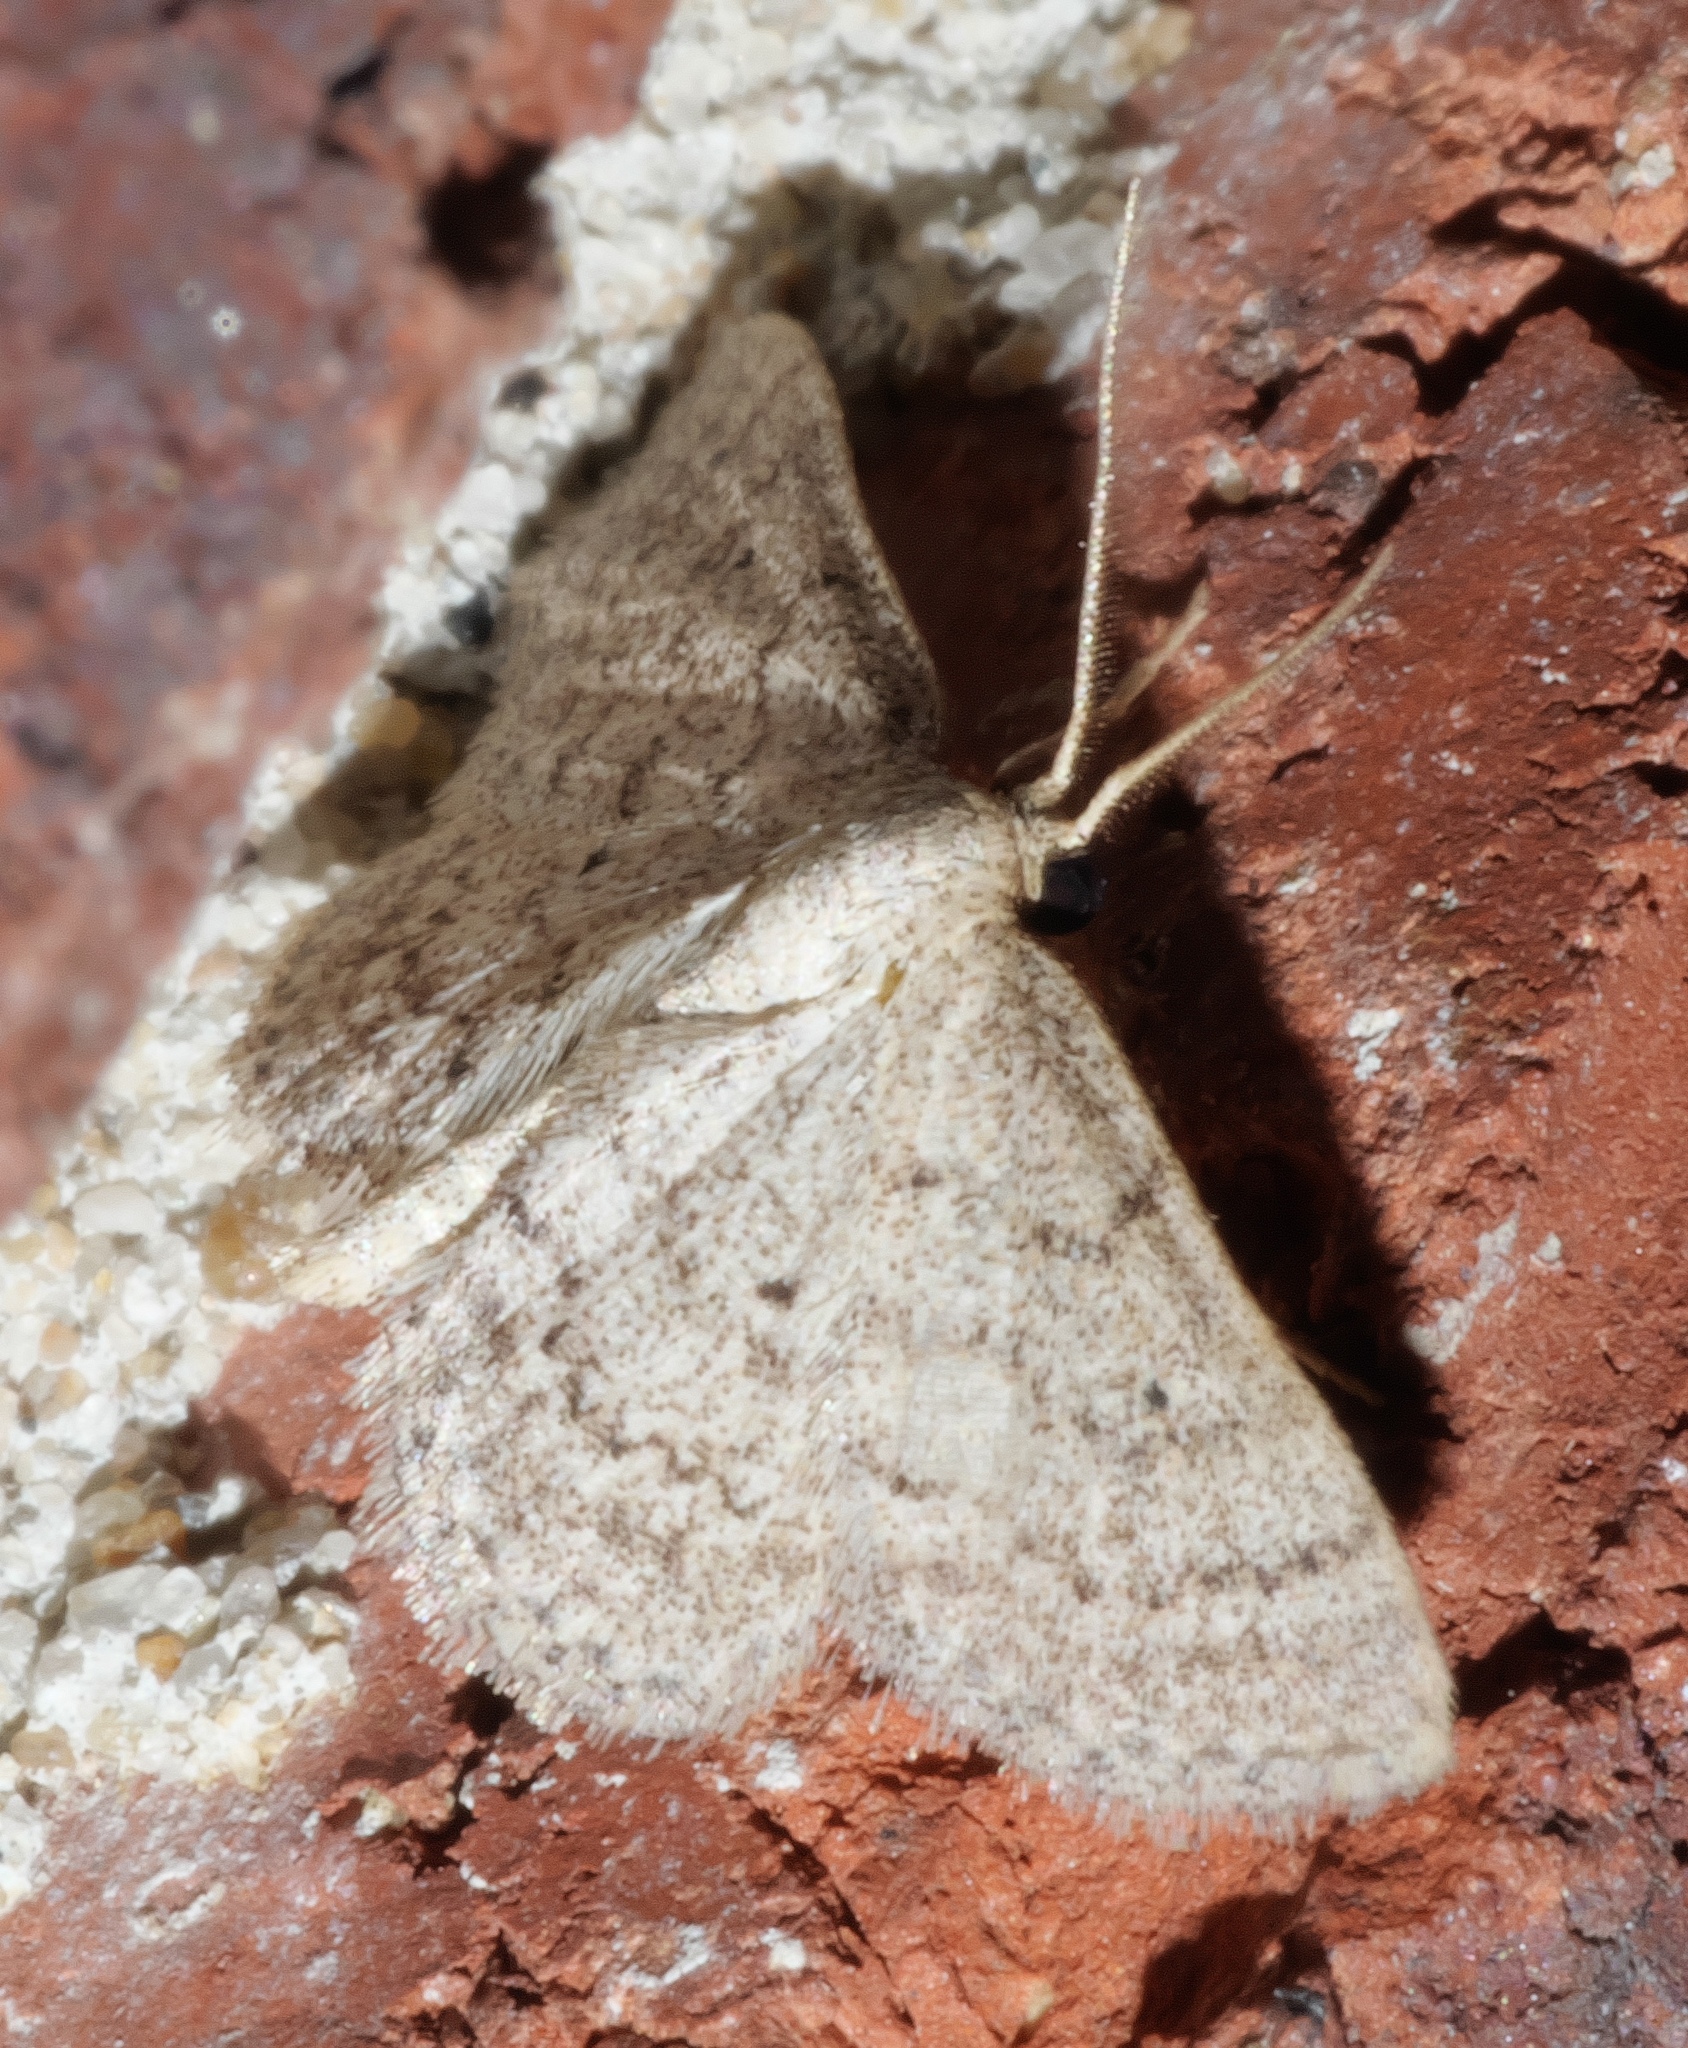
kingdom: Animalia
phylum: Arthropoda
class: Insecta
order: Lepidoptera
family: Geometridae
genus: Lobocleta
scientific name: Lobocleta ossularia
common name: Drab brown wave
